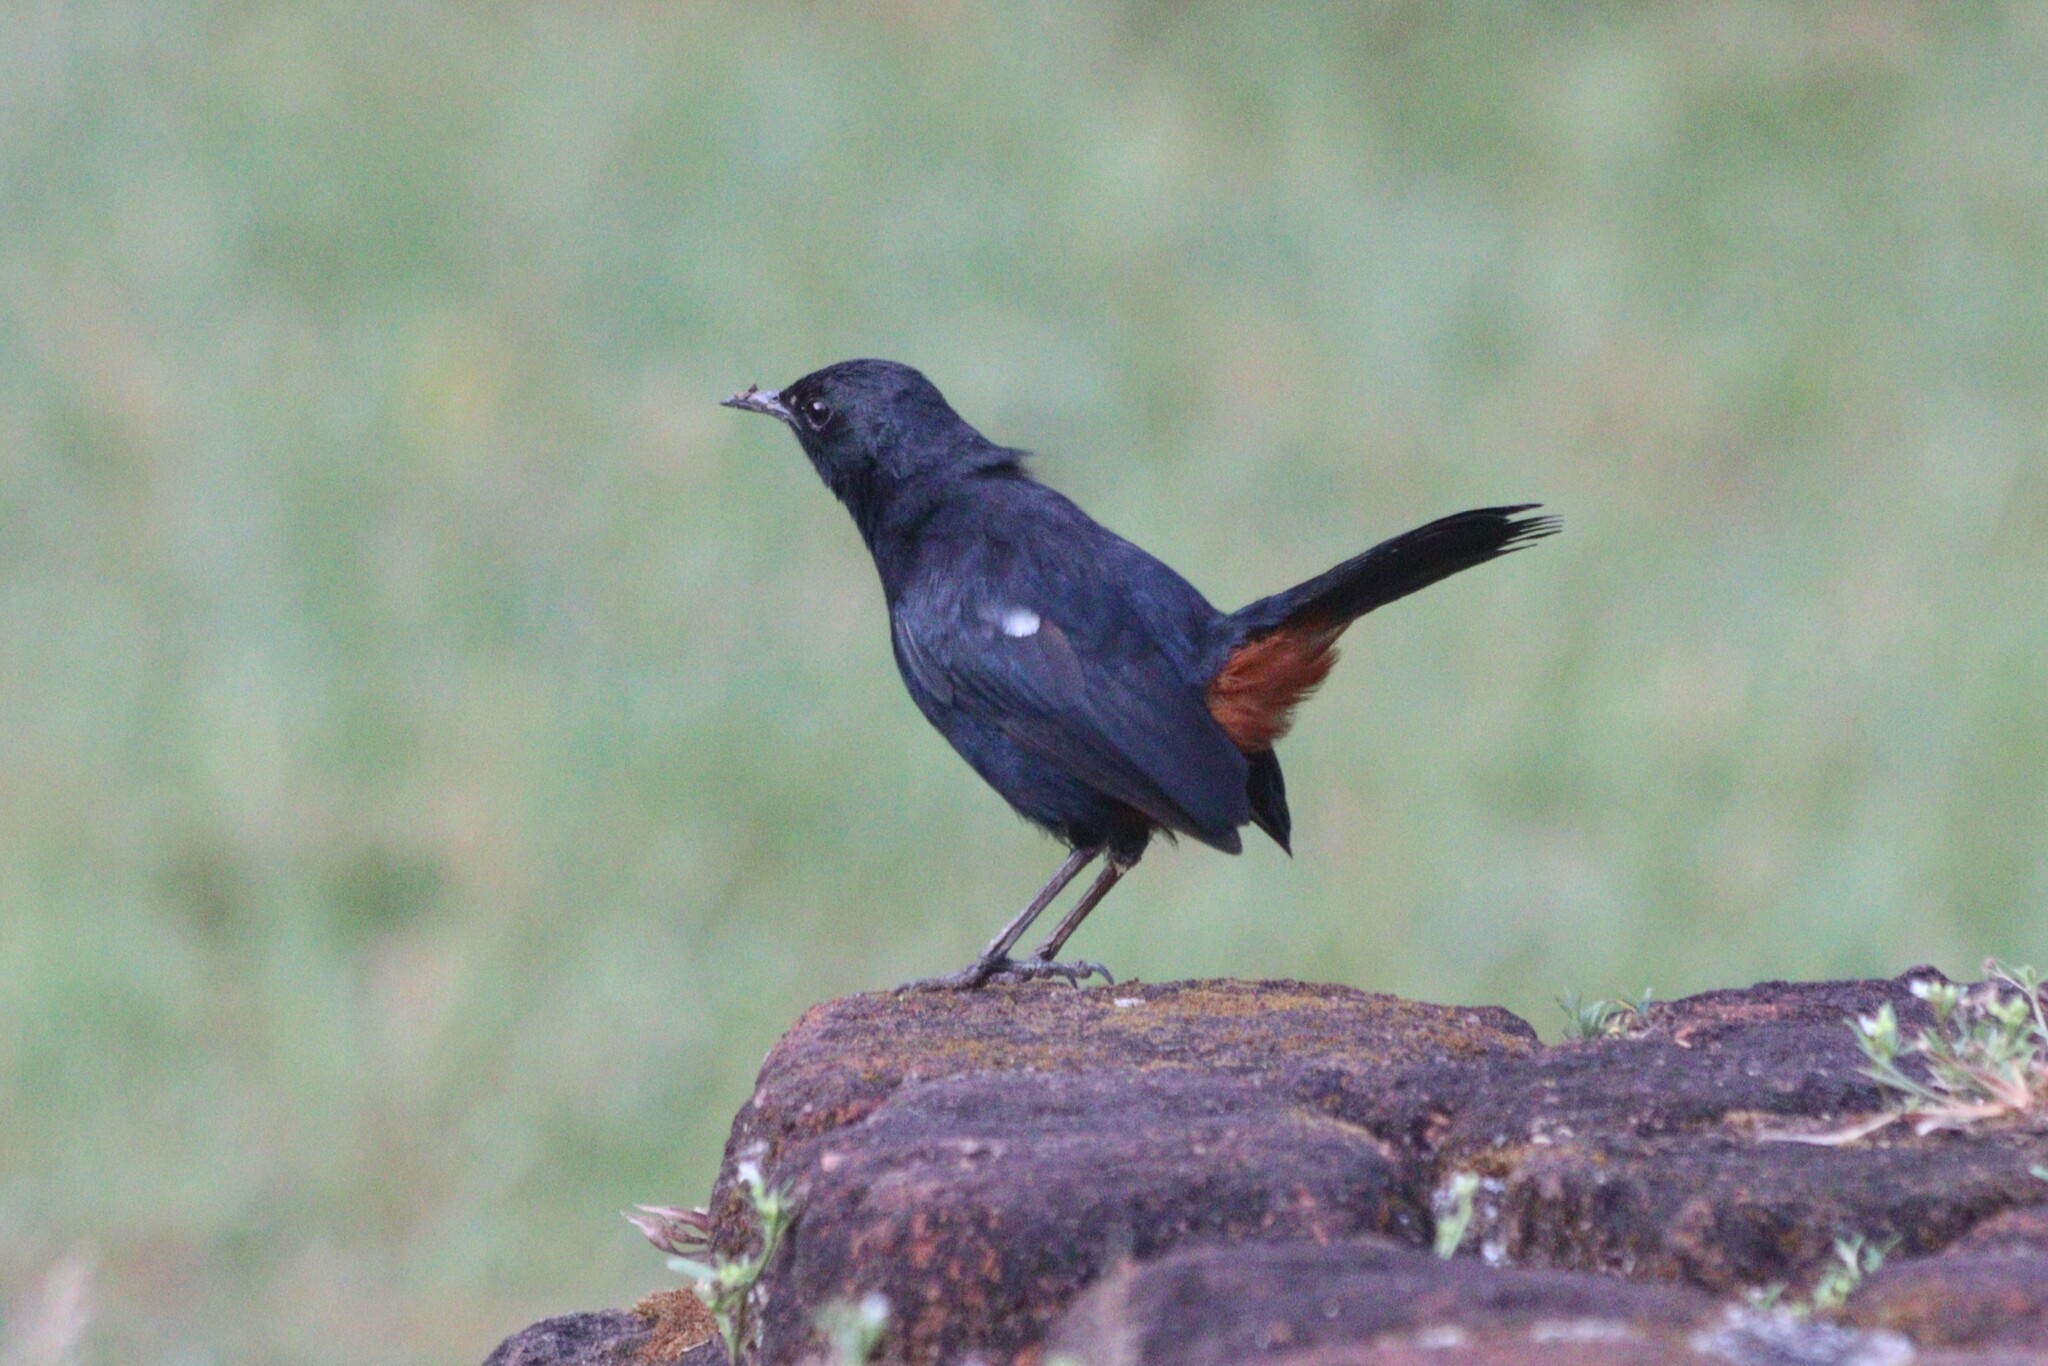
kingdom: Animalia
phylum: Chordata
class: Aves
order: Passeriformes
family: Muscicapidae
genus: Saxicoloides
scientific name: Saxicoloides fulicatus
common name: Indian robin
